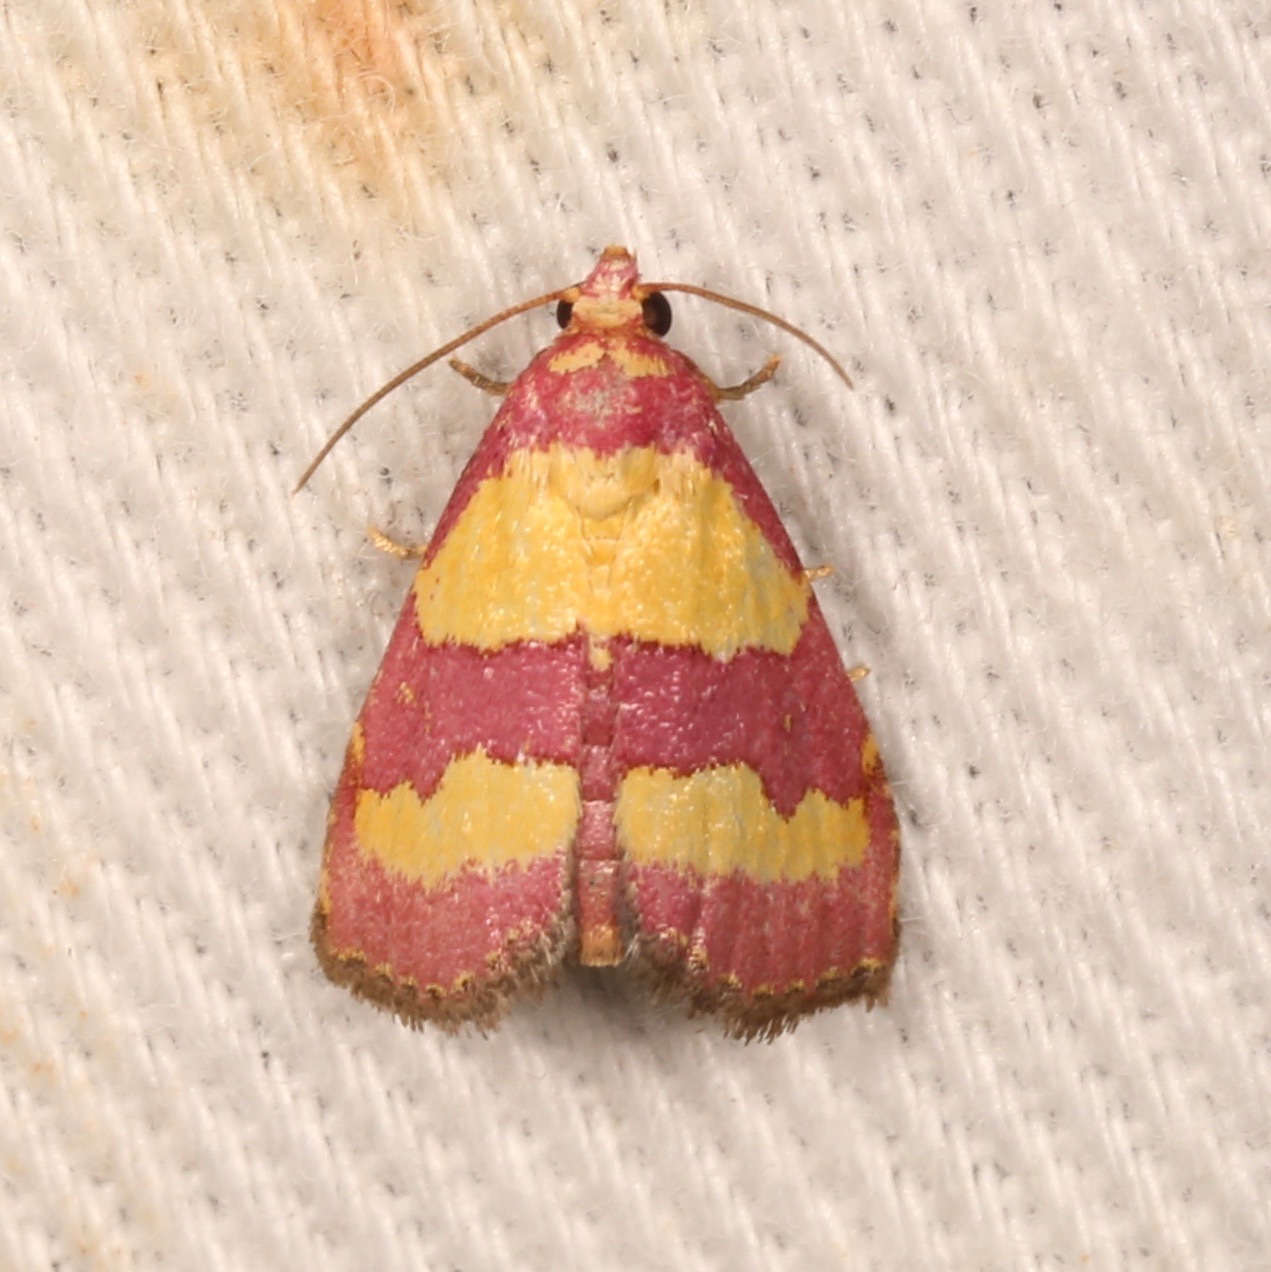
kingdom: Animalia
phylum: Arthropoda
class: Insecta
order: Lepidoptera
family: Noctuidae
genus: Phoenicophanta
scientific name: Phoenicophanta bicolor
